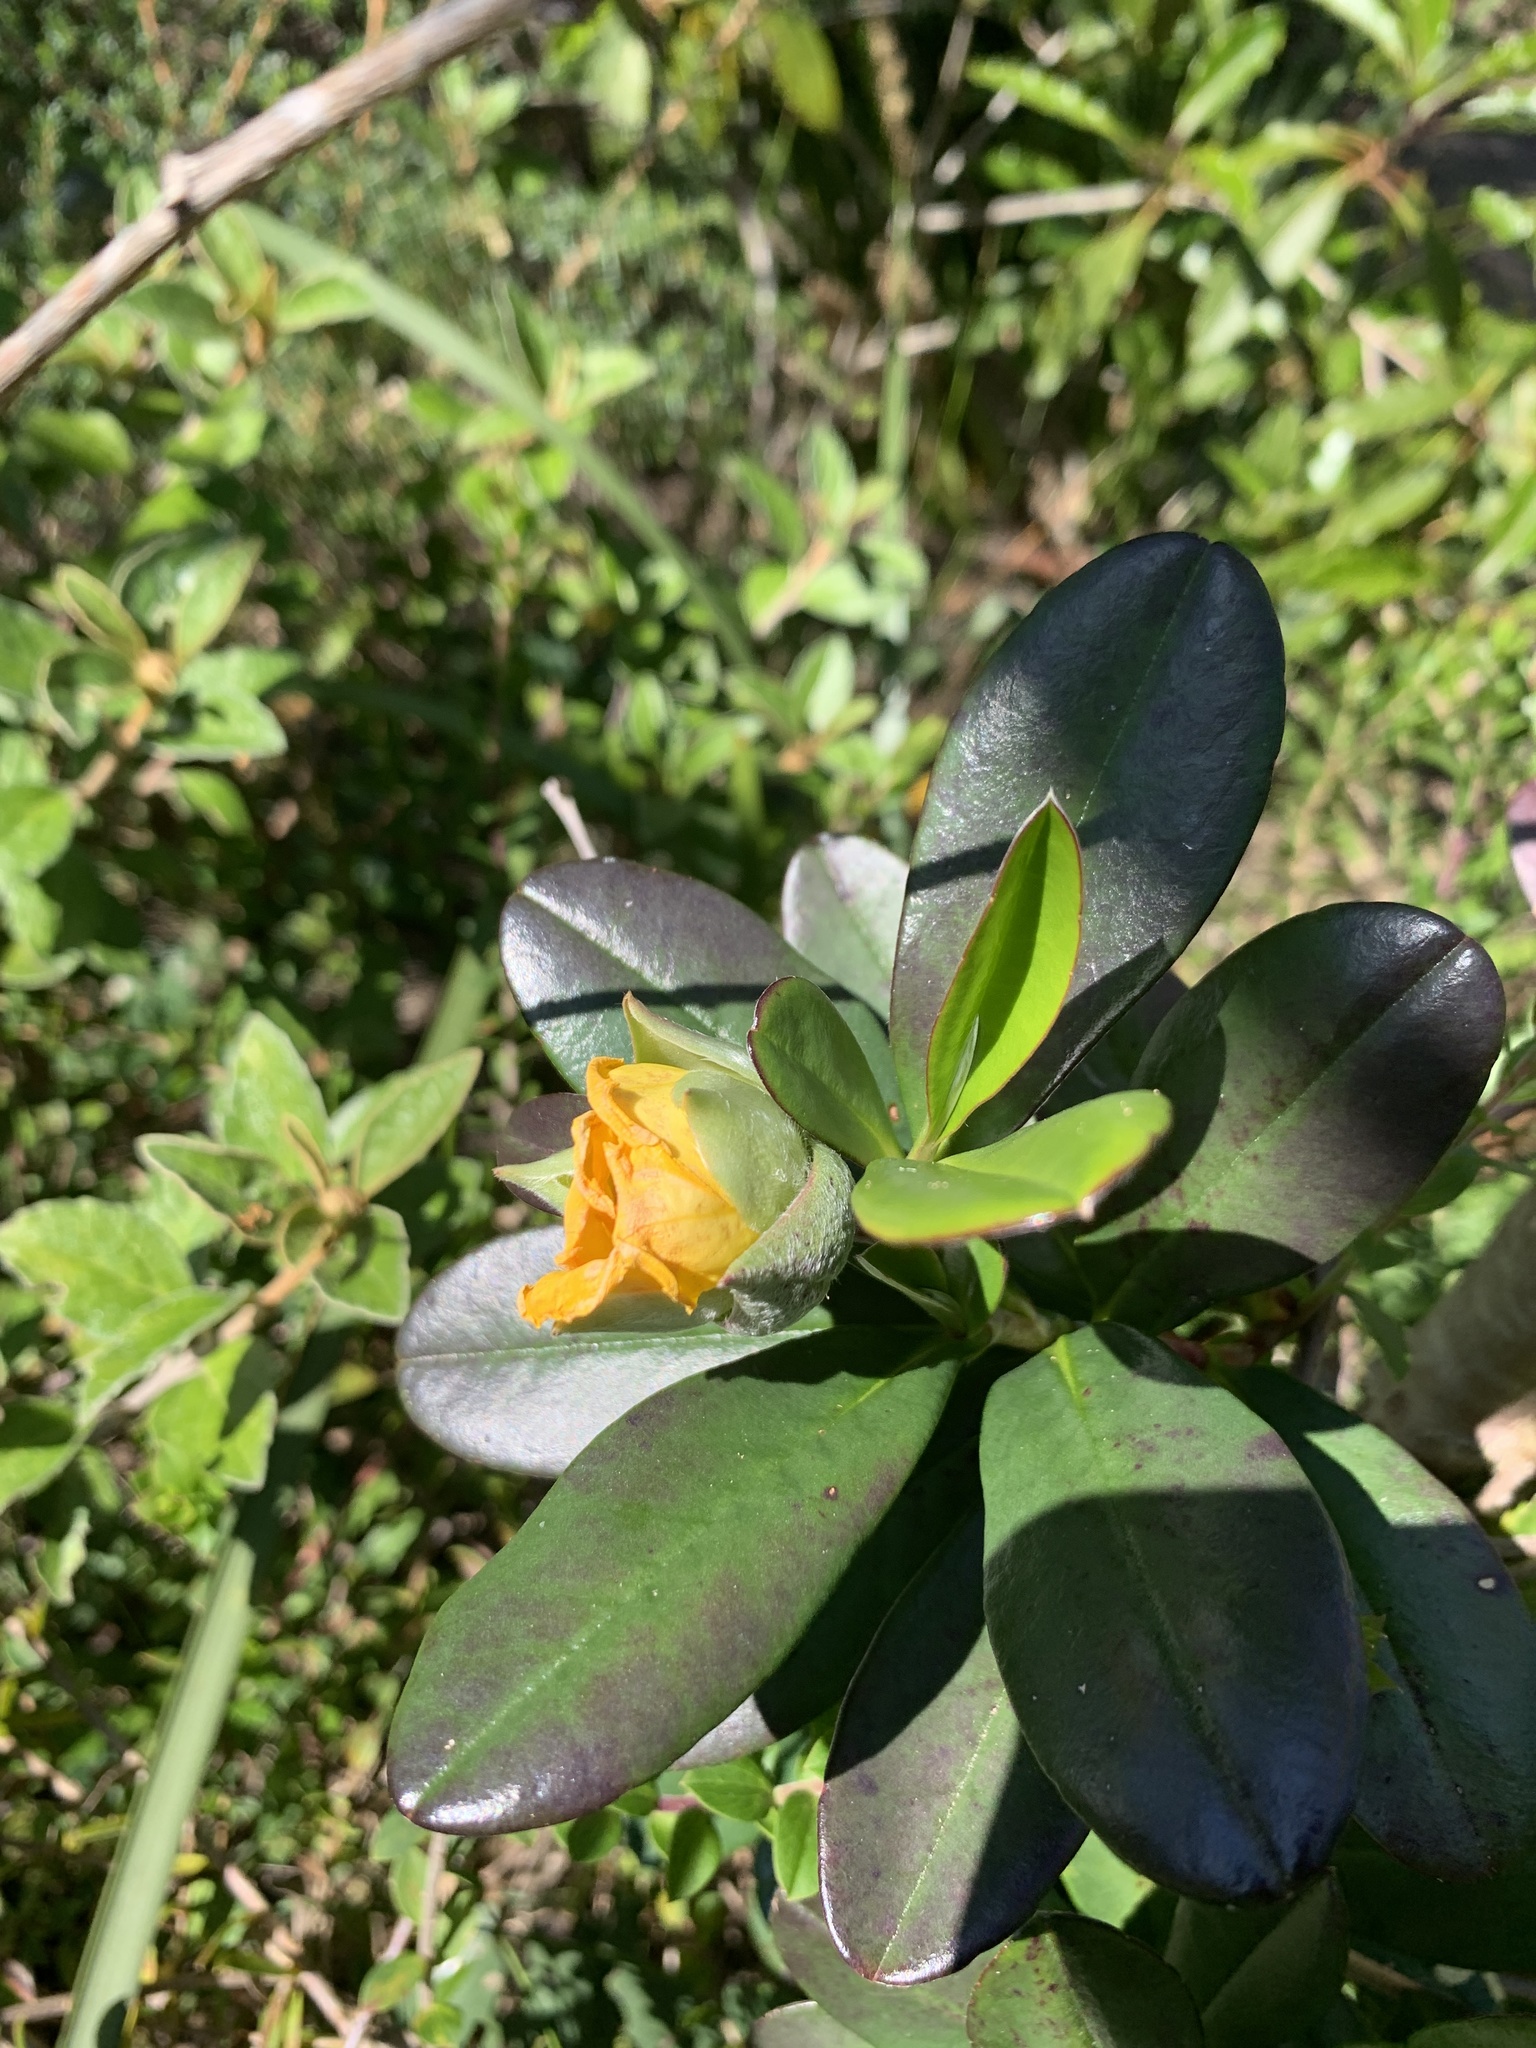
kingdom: Plantae
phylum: Tracheophyta
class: Magnoliopsida
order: Dilleniales
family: Dilleniaceae
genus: Hibbertia
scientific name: Hibbertia scandens
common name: Climbing guinea-flower
